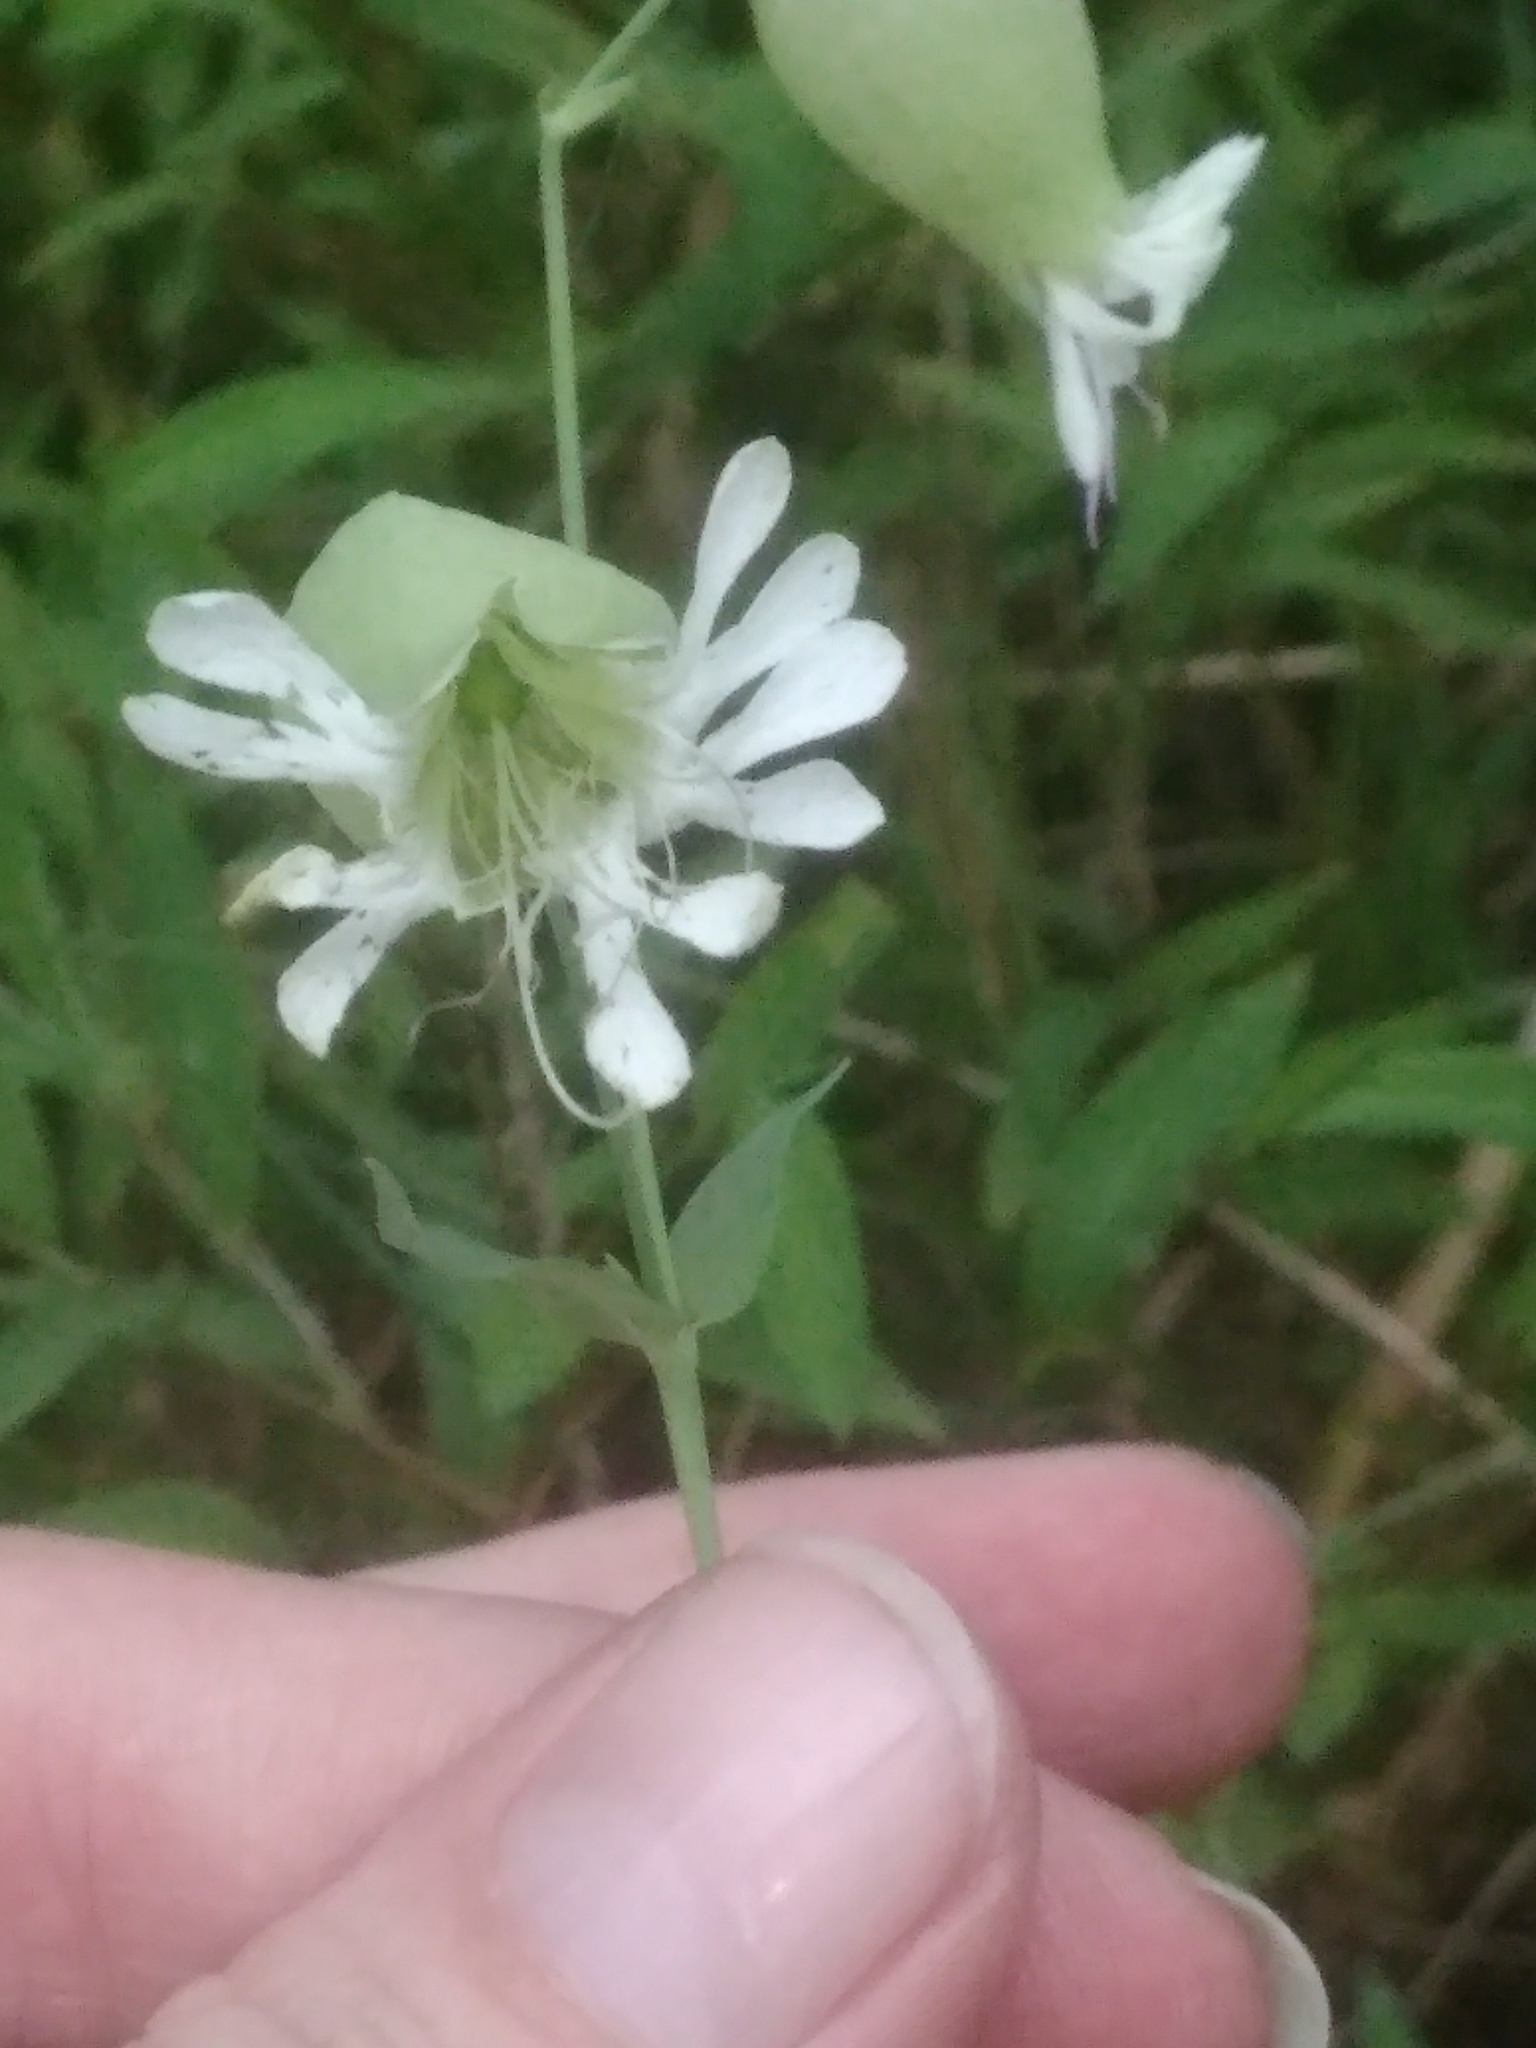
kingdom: Plantae
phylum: Tracheophyta
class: Magnoliopsida
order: Caryophyllales
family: Caryophyllaceae
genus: Silene
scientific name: Silene vulgaris
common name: Bladder campion
